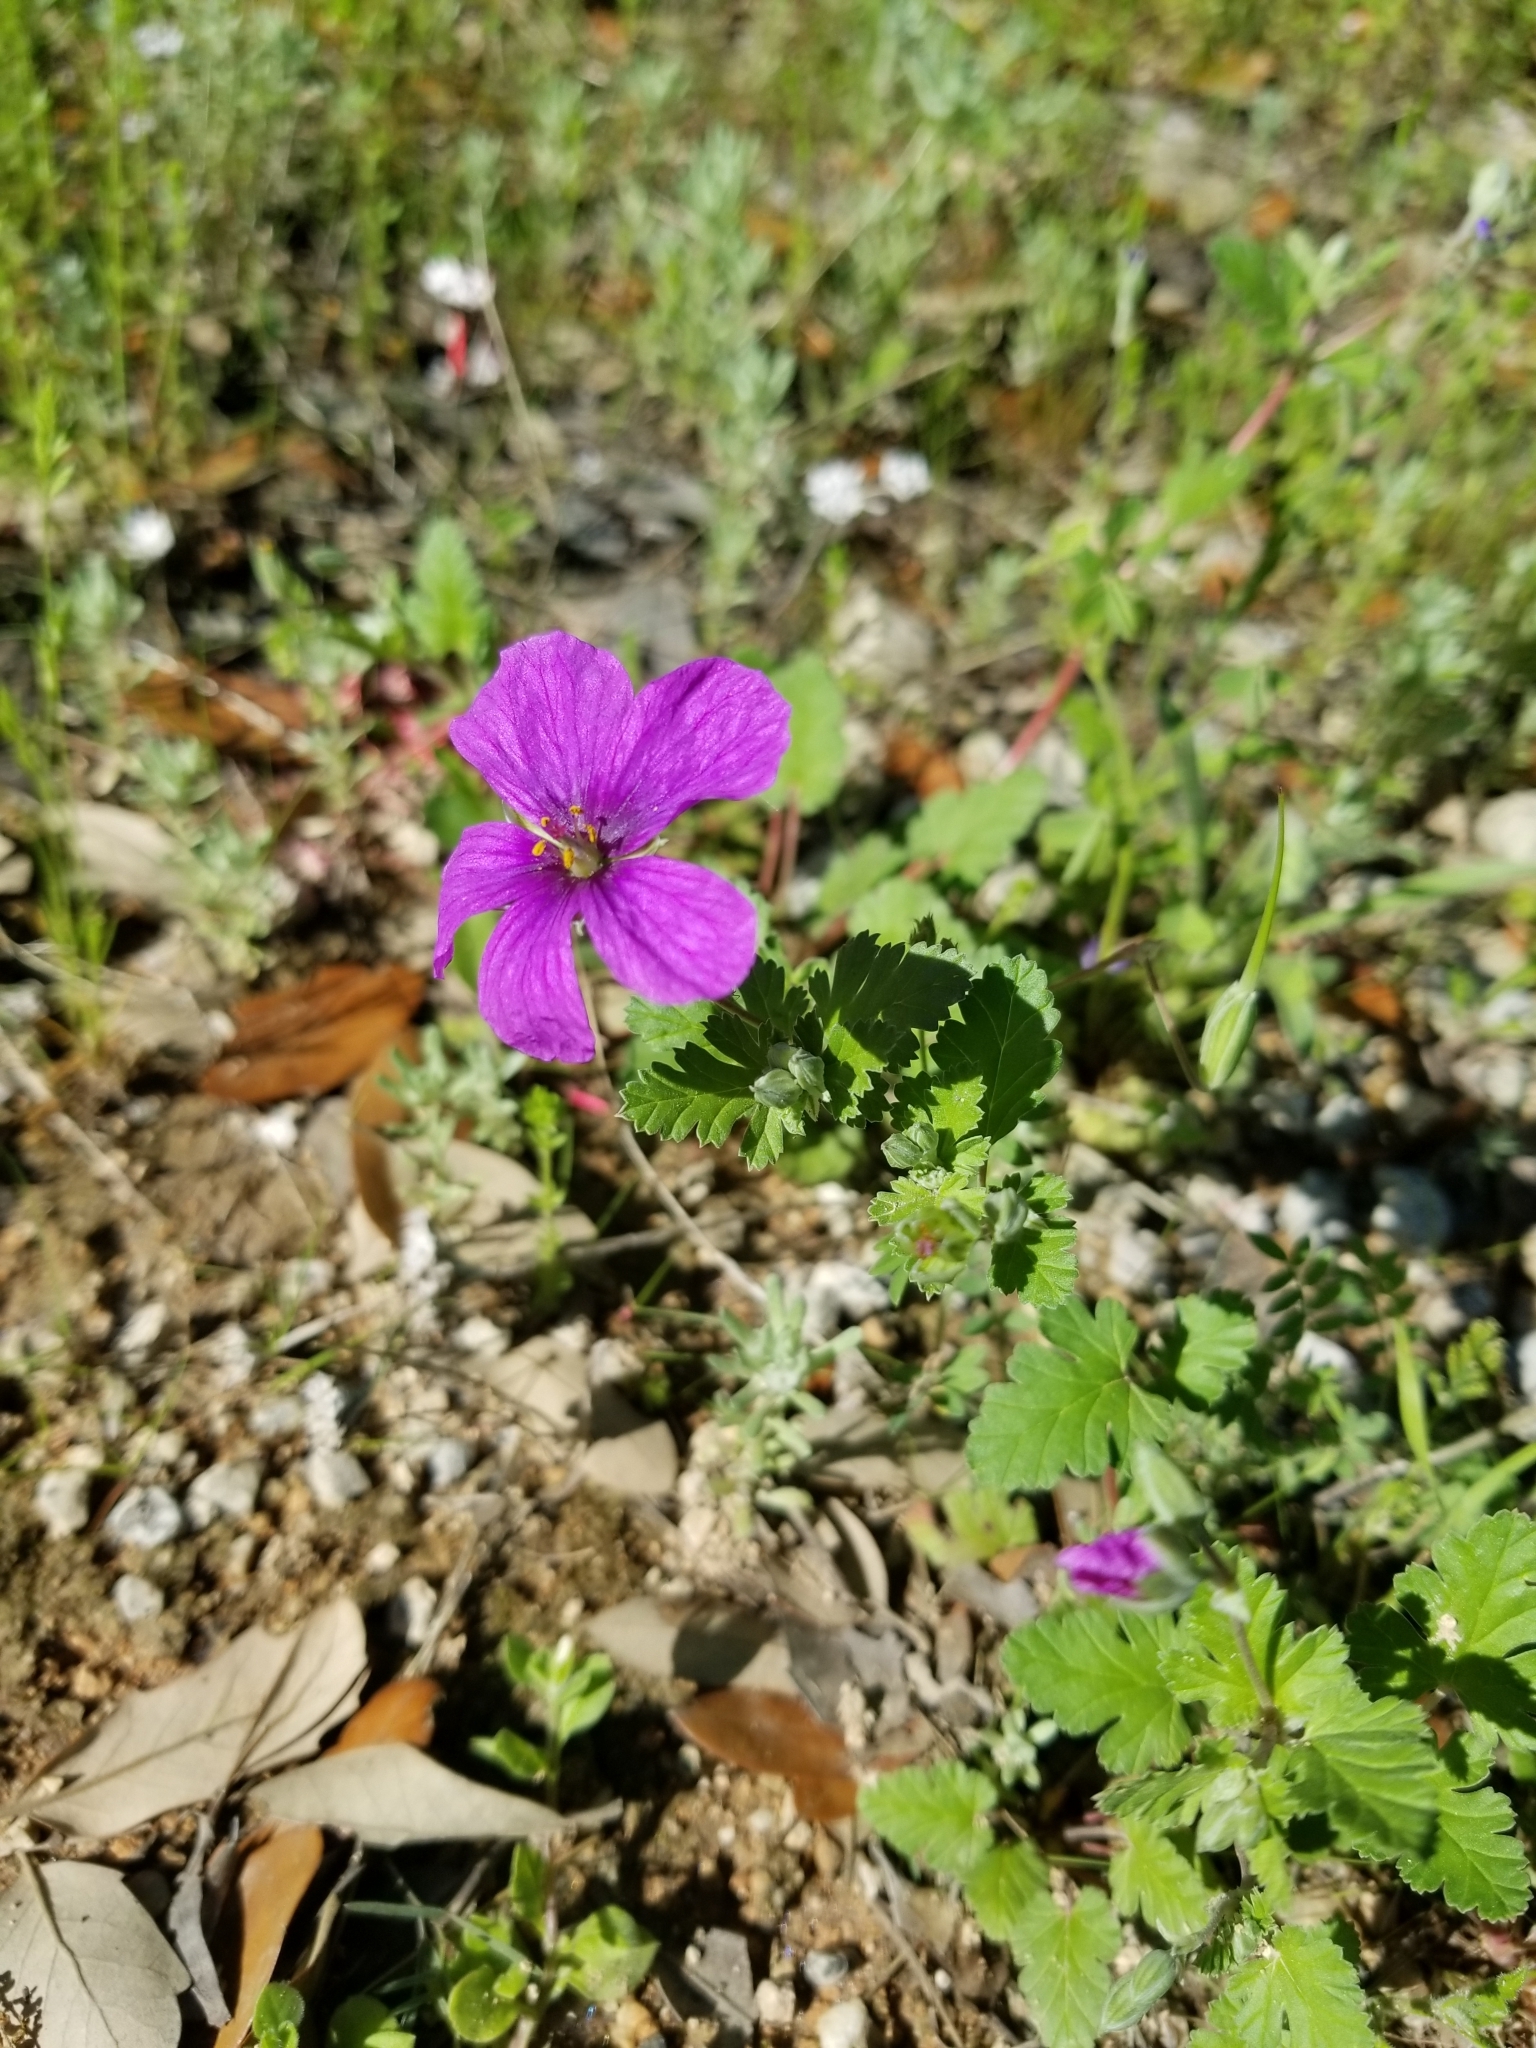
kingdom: Plantae
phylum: Tracheophyta
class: Magnoliopsida
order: Geraniales
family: Geraniaceae
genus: Erodium
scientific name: Erodium texanum
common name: Texas stork's-bill
